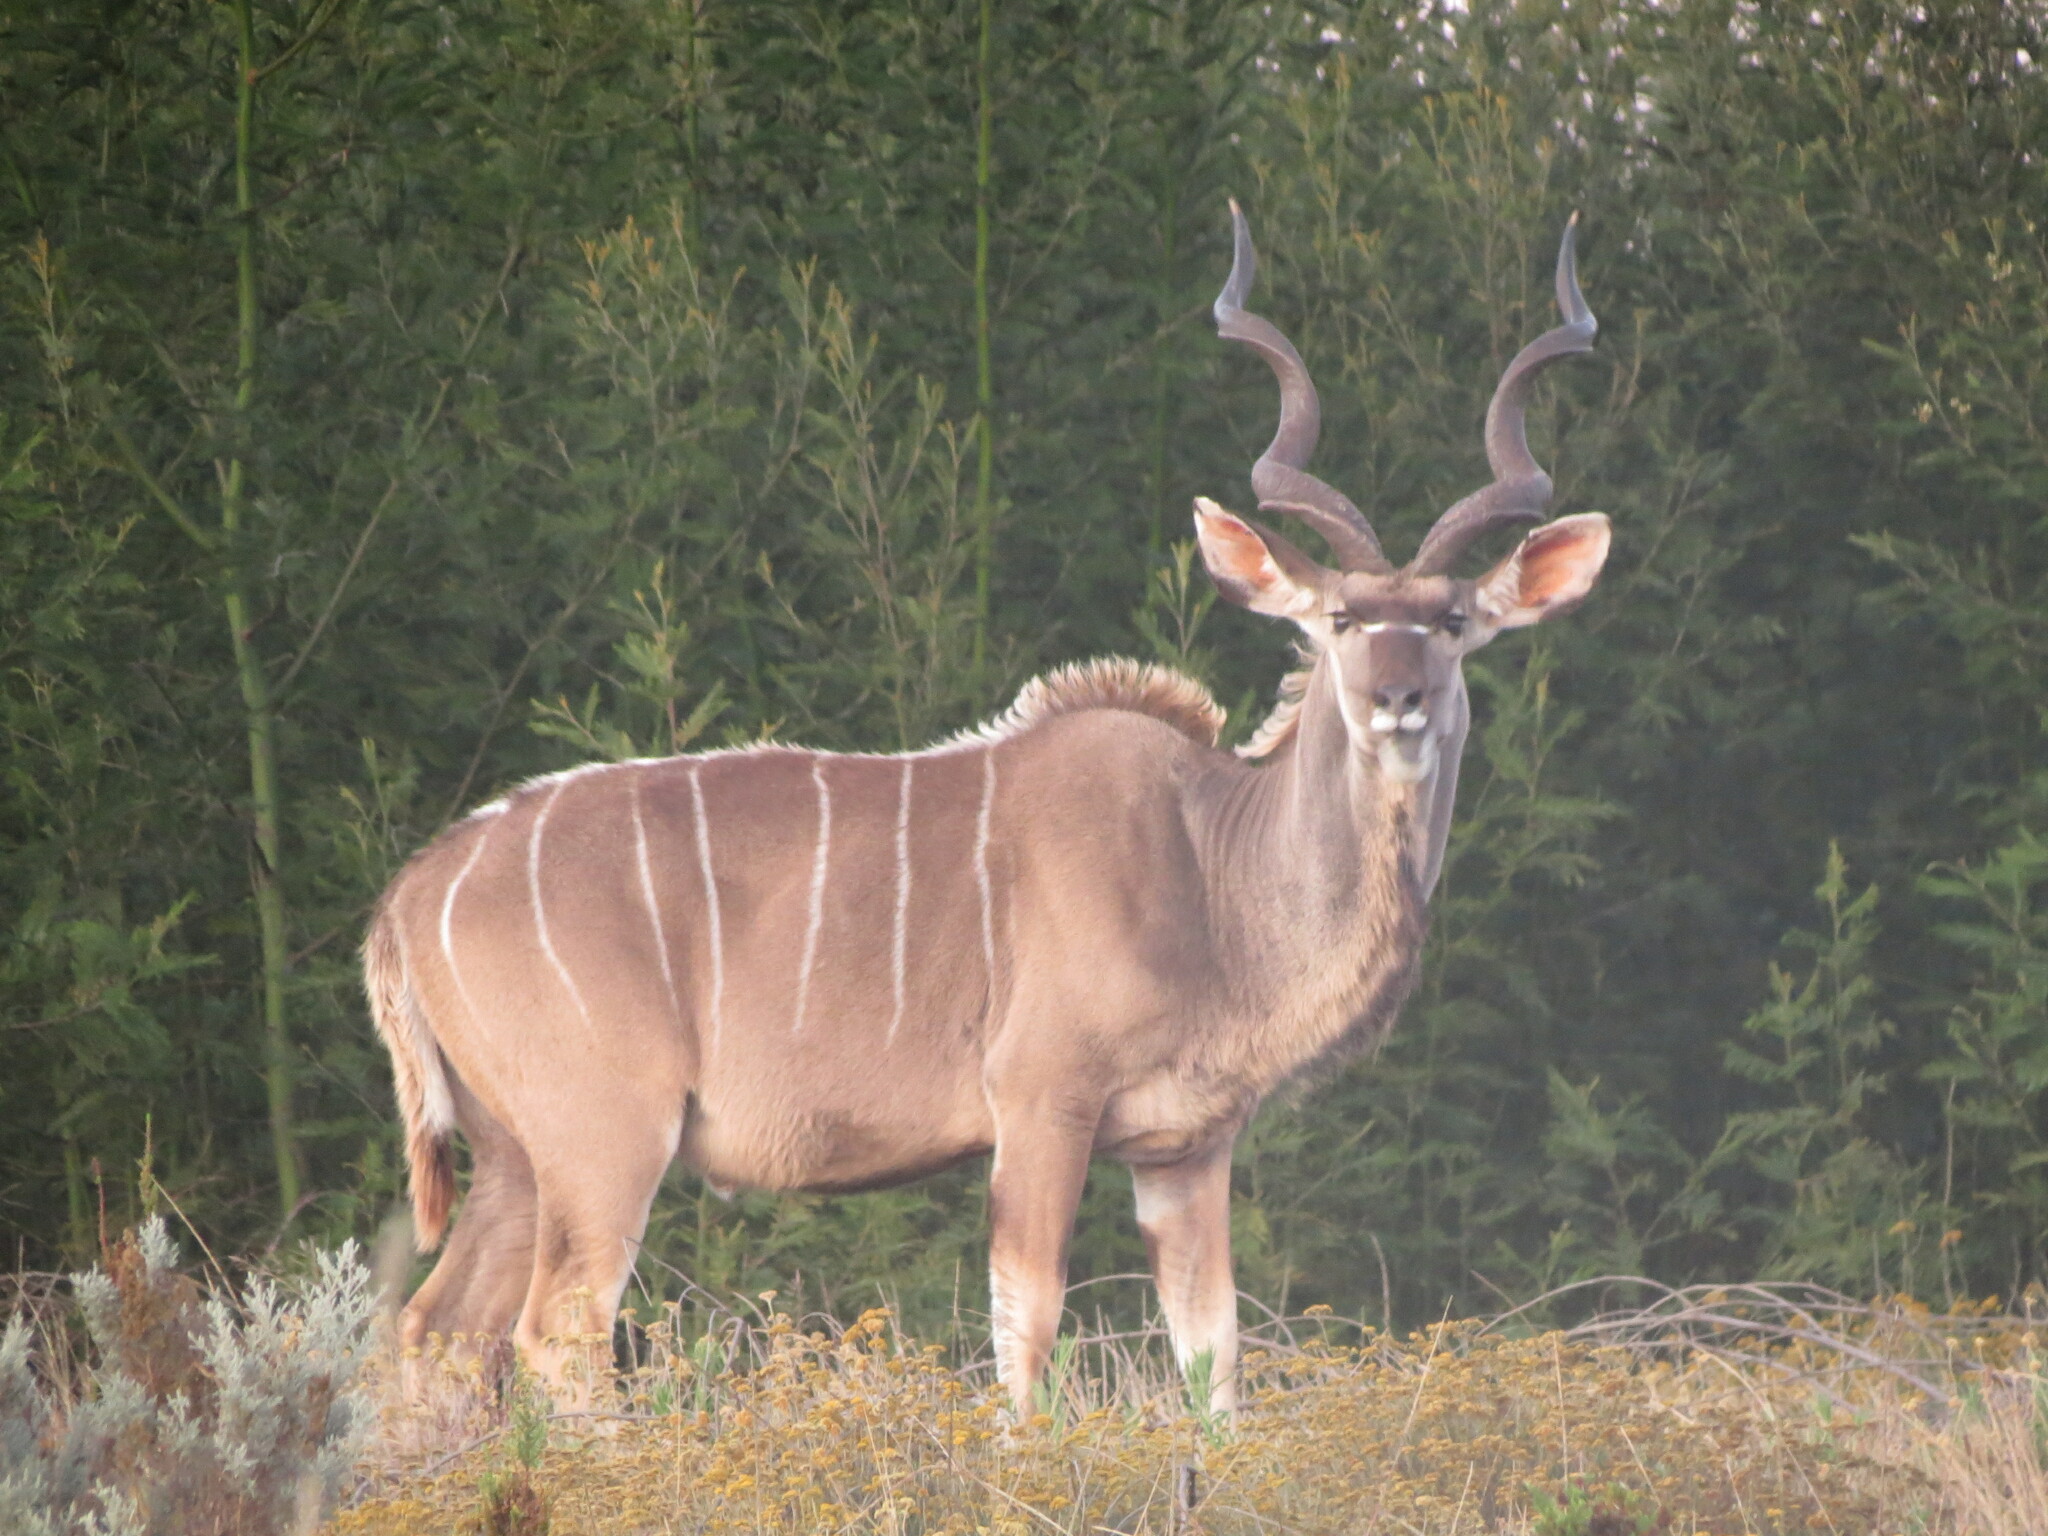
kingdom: Animalia
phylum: Chordata
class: Mammalia
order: Artiodactyla
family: Bovidae
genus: Tragelaphus
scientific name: Tragelaphus strepsiceros
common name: Greater kudu
